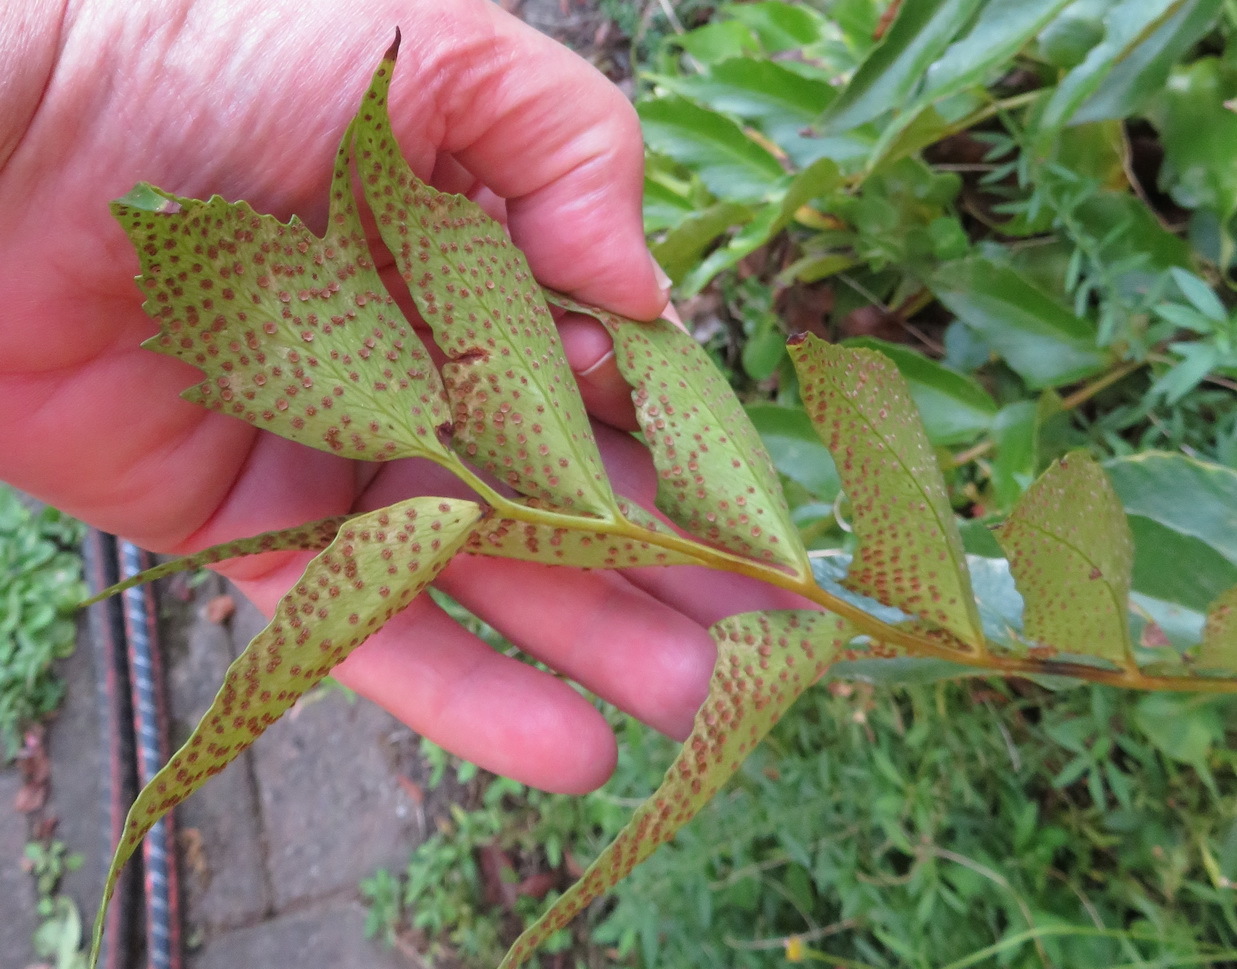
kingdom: Plantae
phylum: Tracheophyta
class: Polypodiopsida
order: Polypodiales
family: Dryopteridaceae
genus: Cyrtomium
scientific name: Cyrtomium falcatum
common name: House holly-fern
